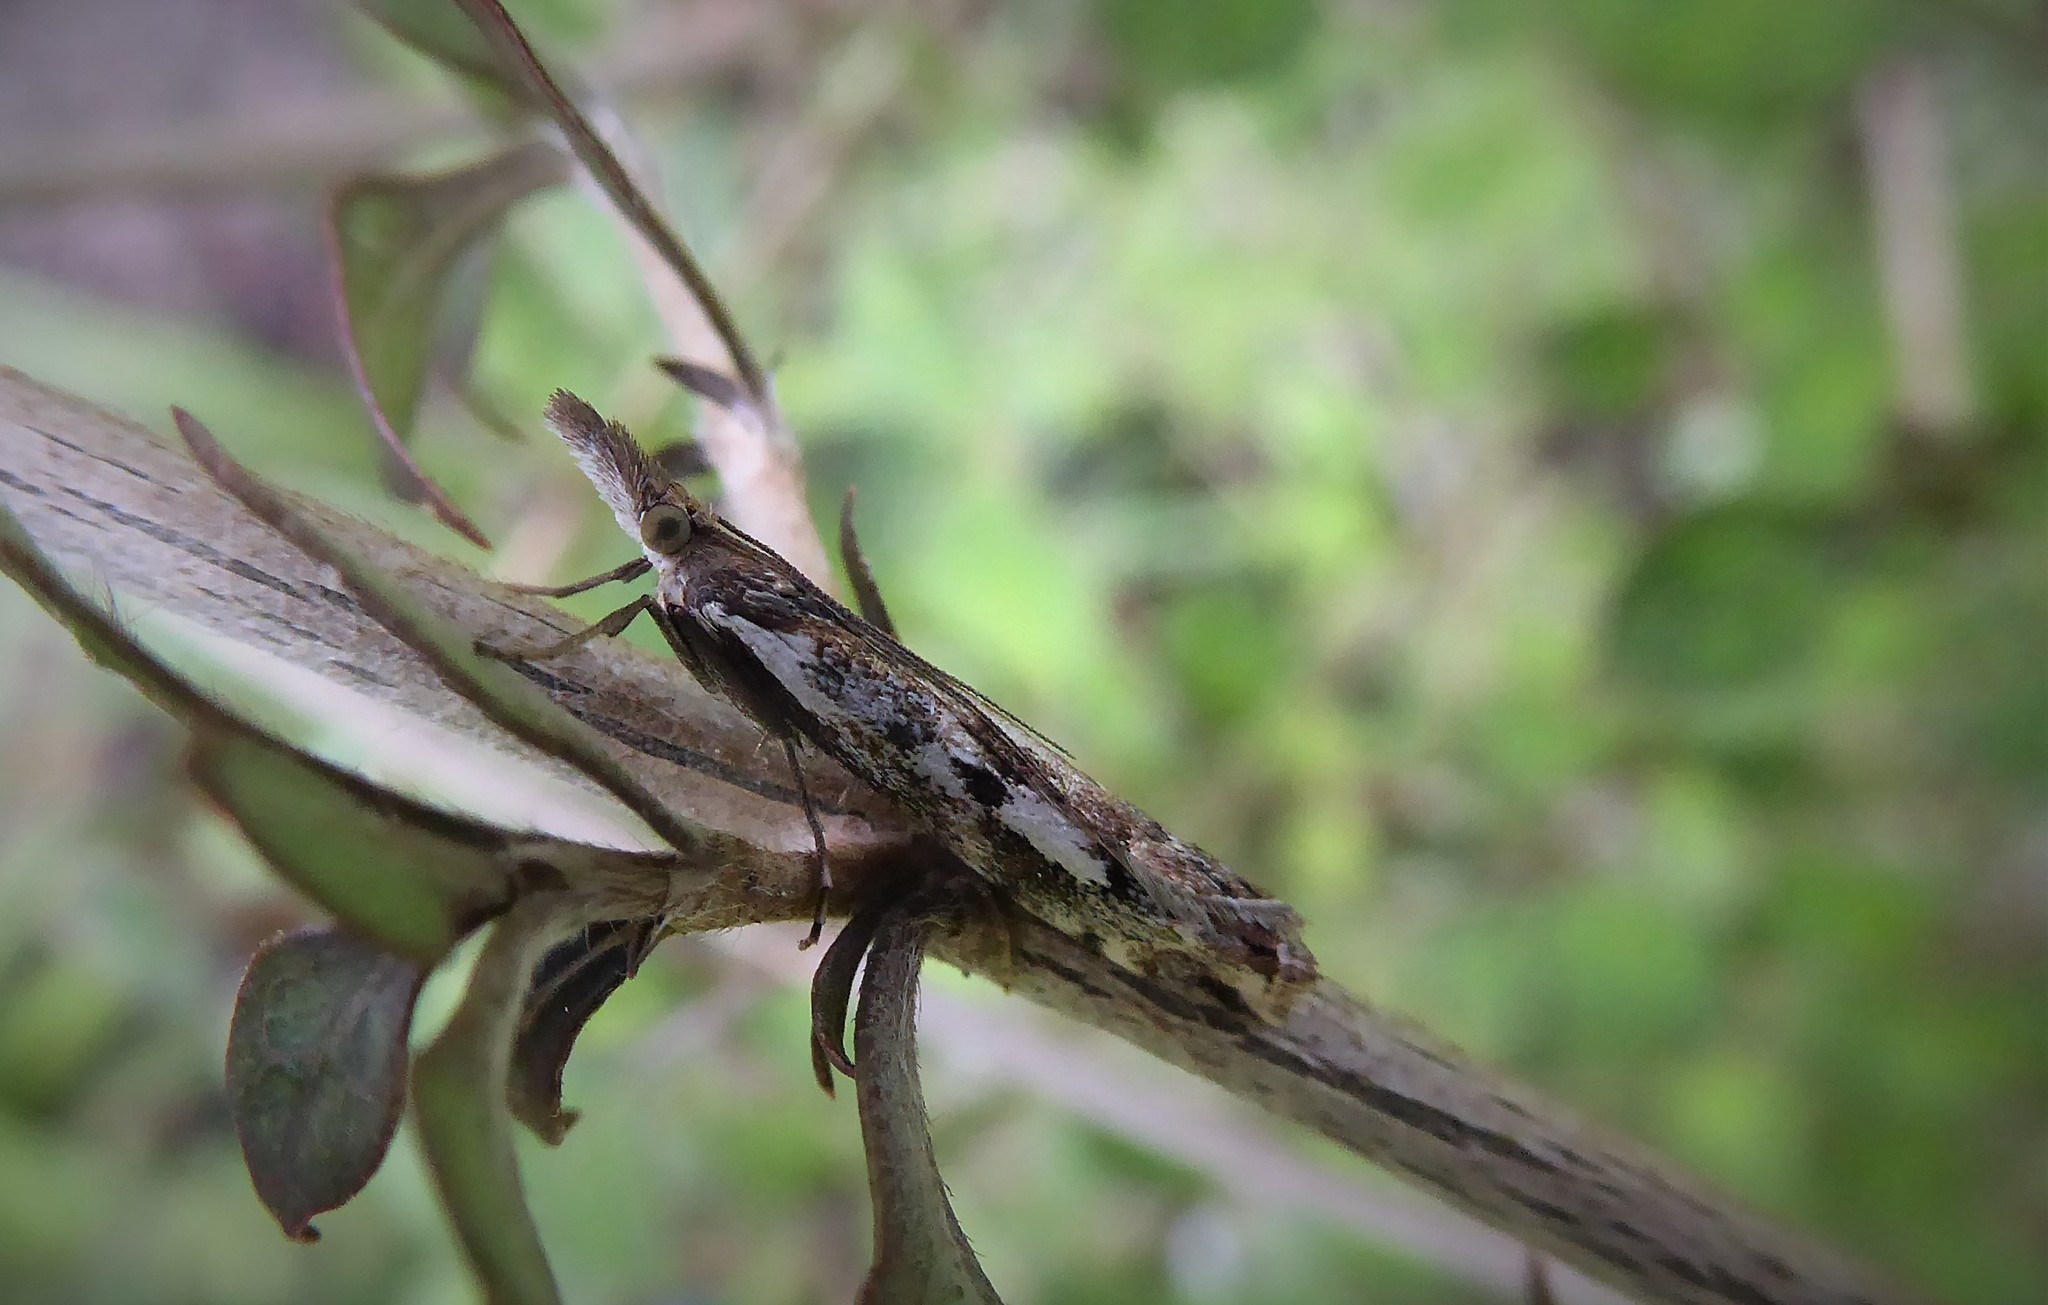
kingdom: Animalia
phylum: Arthropoda
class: Insecta
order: Lepidoptera
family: Crambidae
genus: Orocrambus
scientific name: Orocrambus vulgaris
